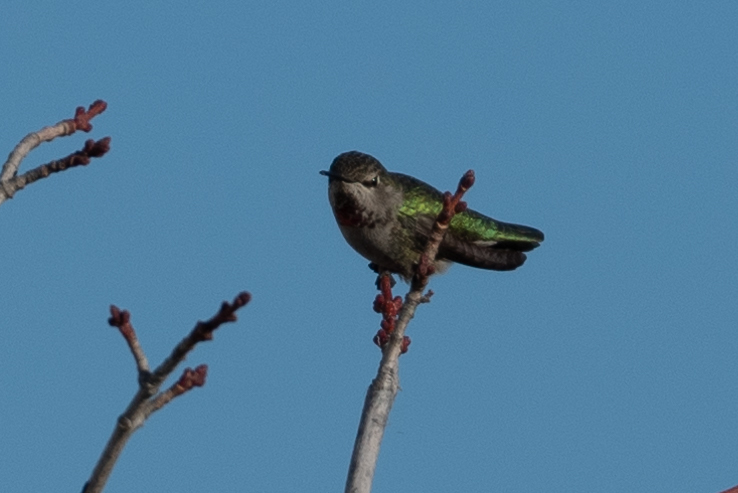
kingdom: Animalia
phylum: Chordata
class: Aves
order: Apodiformes
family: Trochilidae
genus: Calypte
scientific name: Calypte anna
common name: Anna's hummingbird
